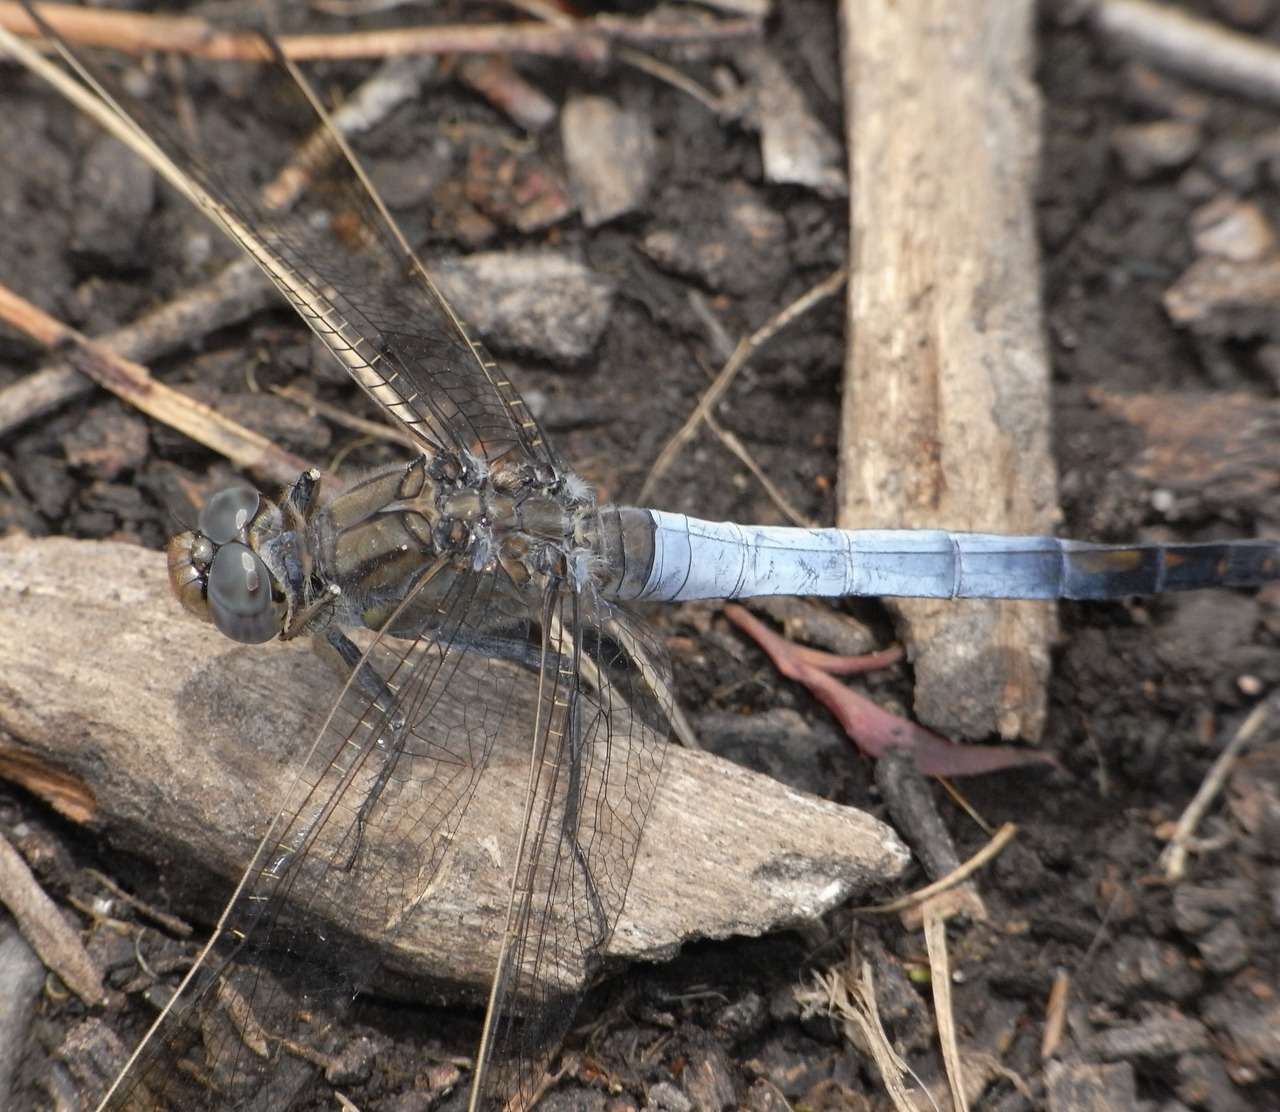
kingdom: Animalia
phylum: Arthropoda
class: Insecta
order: Odonata
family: Libellulidae
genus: Orthetrum
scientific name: Orthetrum caledonicum
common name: Blue skimmer
